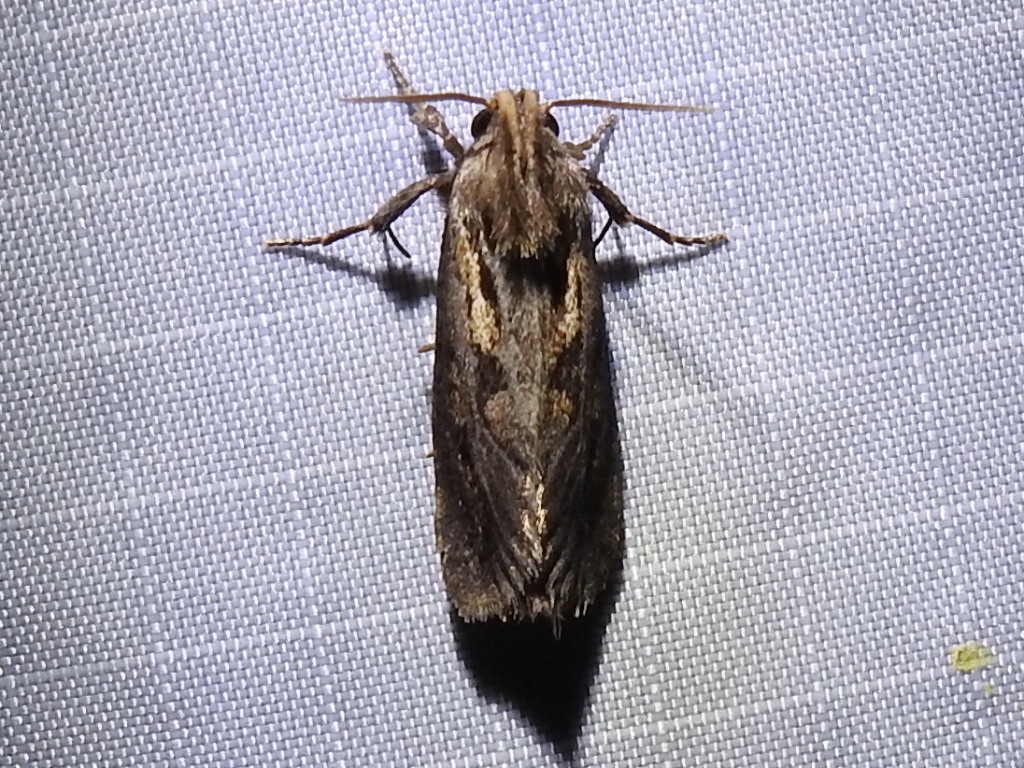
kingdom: Animalia
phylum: Arthropoda
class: Insecta
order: Lepidoptera
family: Tineidae
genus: Acrolophus
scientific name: Acrolophus popeanella
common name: Clemens' grass tubeworm moth
